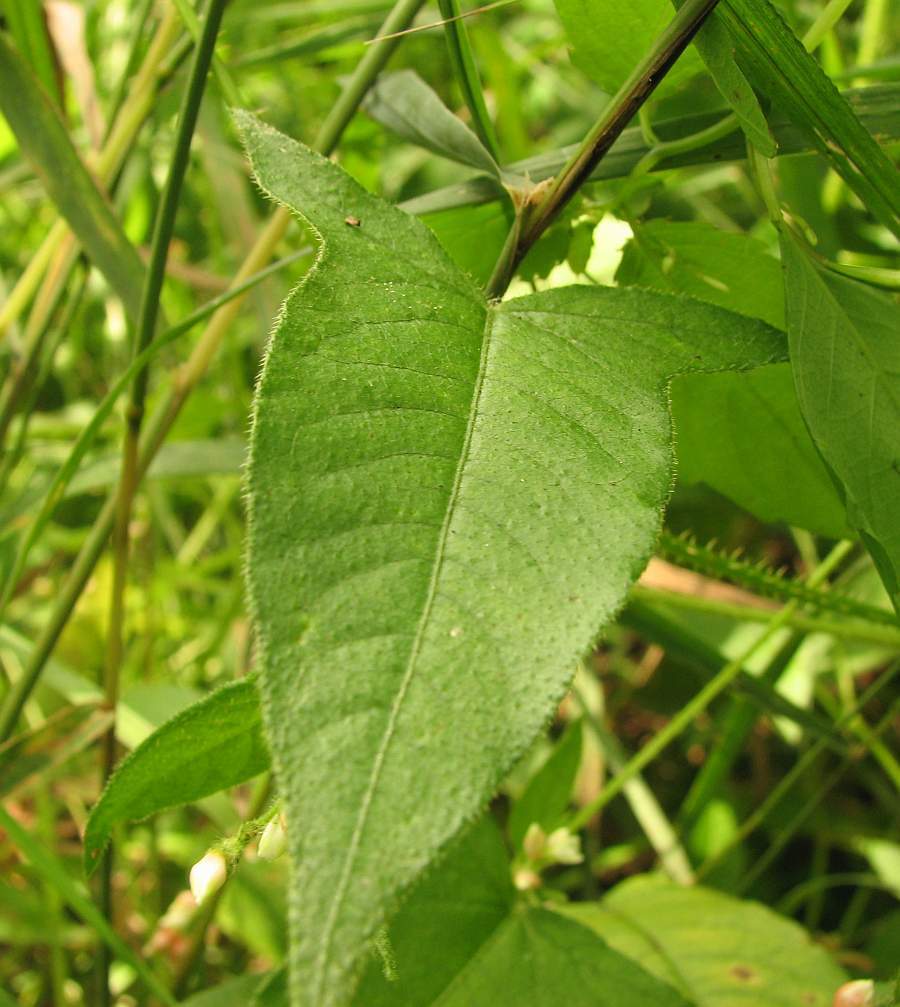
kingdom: Plantae
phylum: Tracheophyta
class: Magnoliopsida
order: Caryophyllales
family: Polygonaceae
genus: Persicaria
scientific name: Persicaria arifolia
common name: Halberd-leaved tear-thumb
